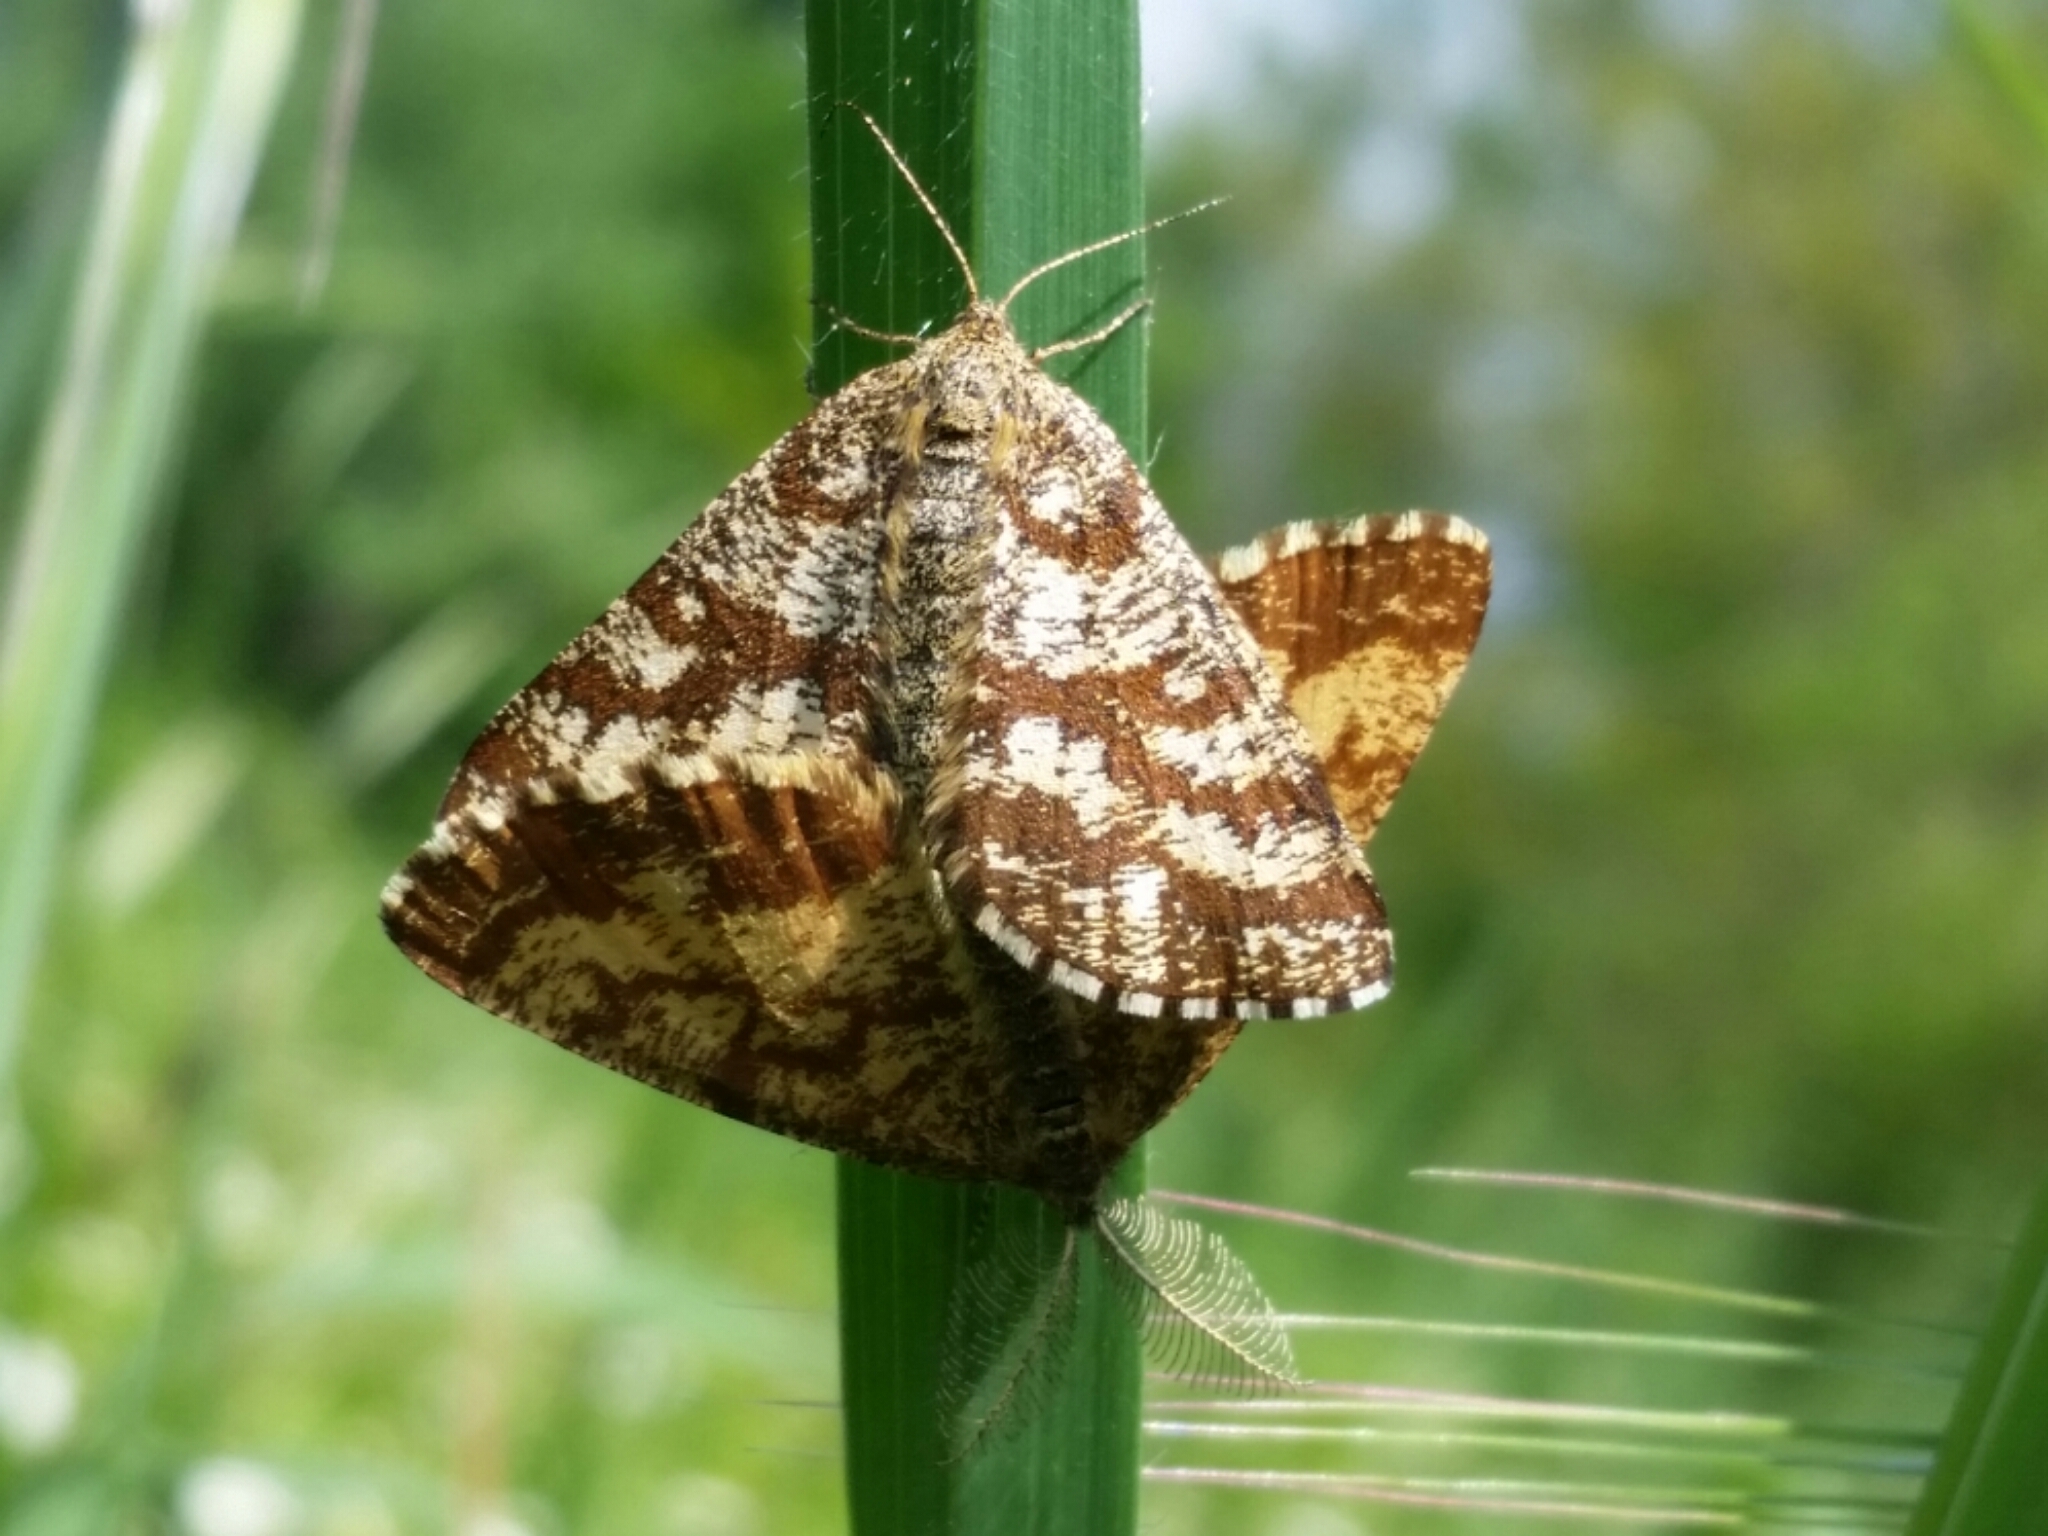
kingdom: Animalia
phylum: Arthropoda
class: Insecta
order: Lepidoptera
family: Geometridae
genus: Ematurga
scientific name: Ematurga atomaria
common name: Common heath
